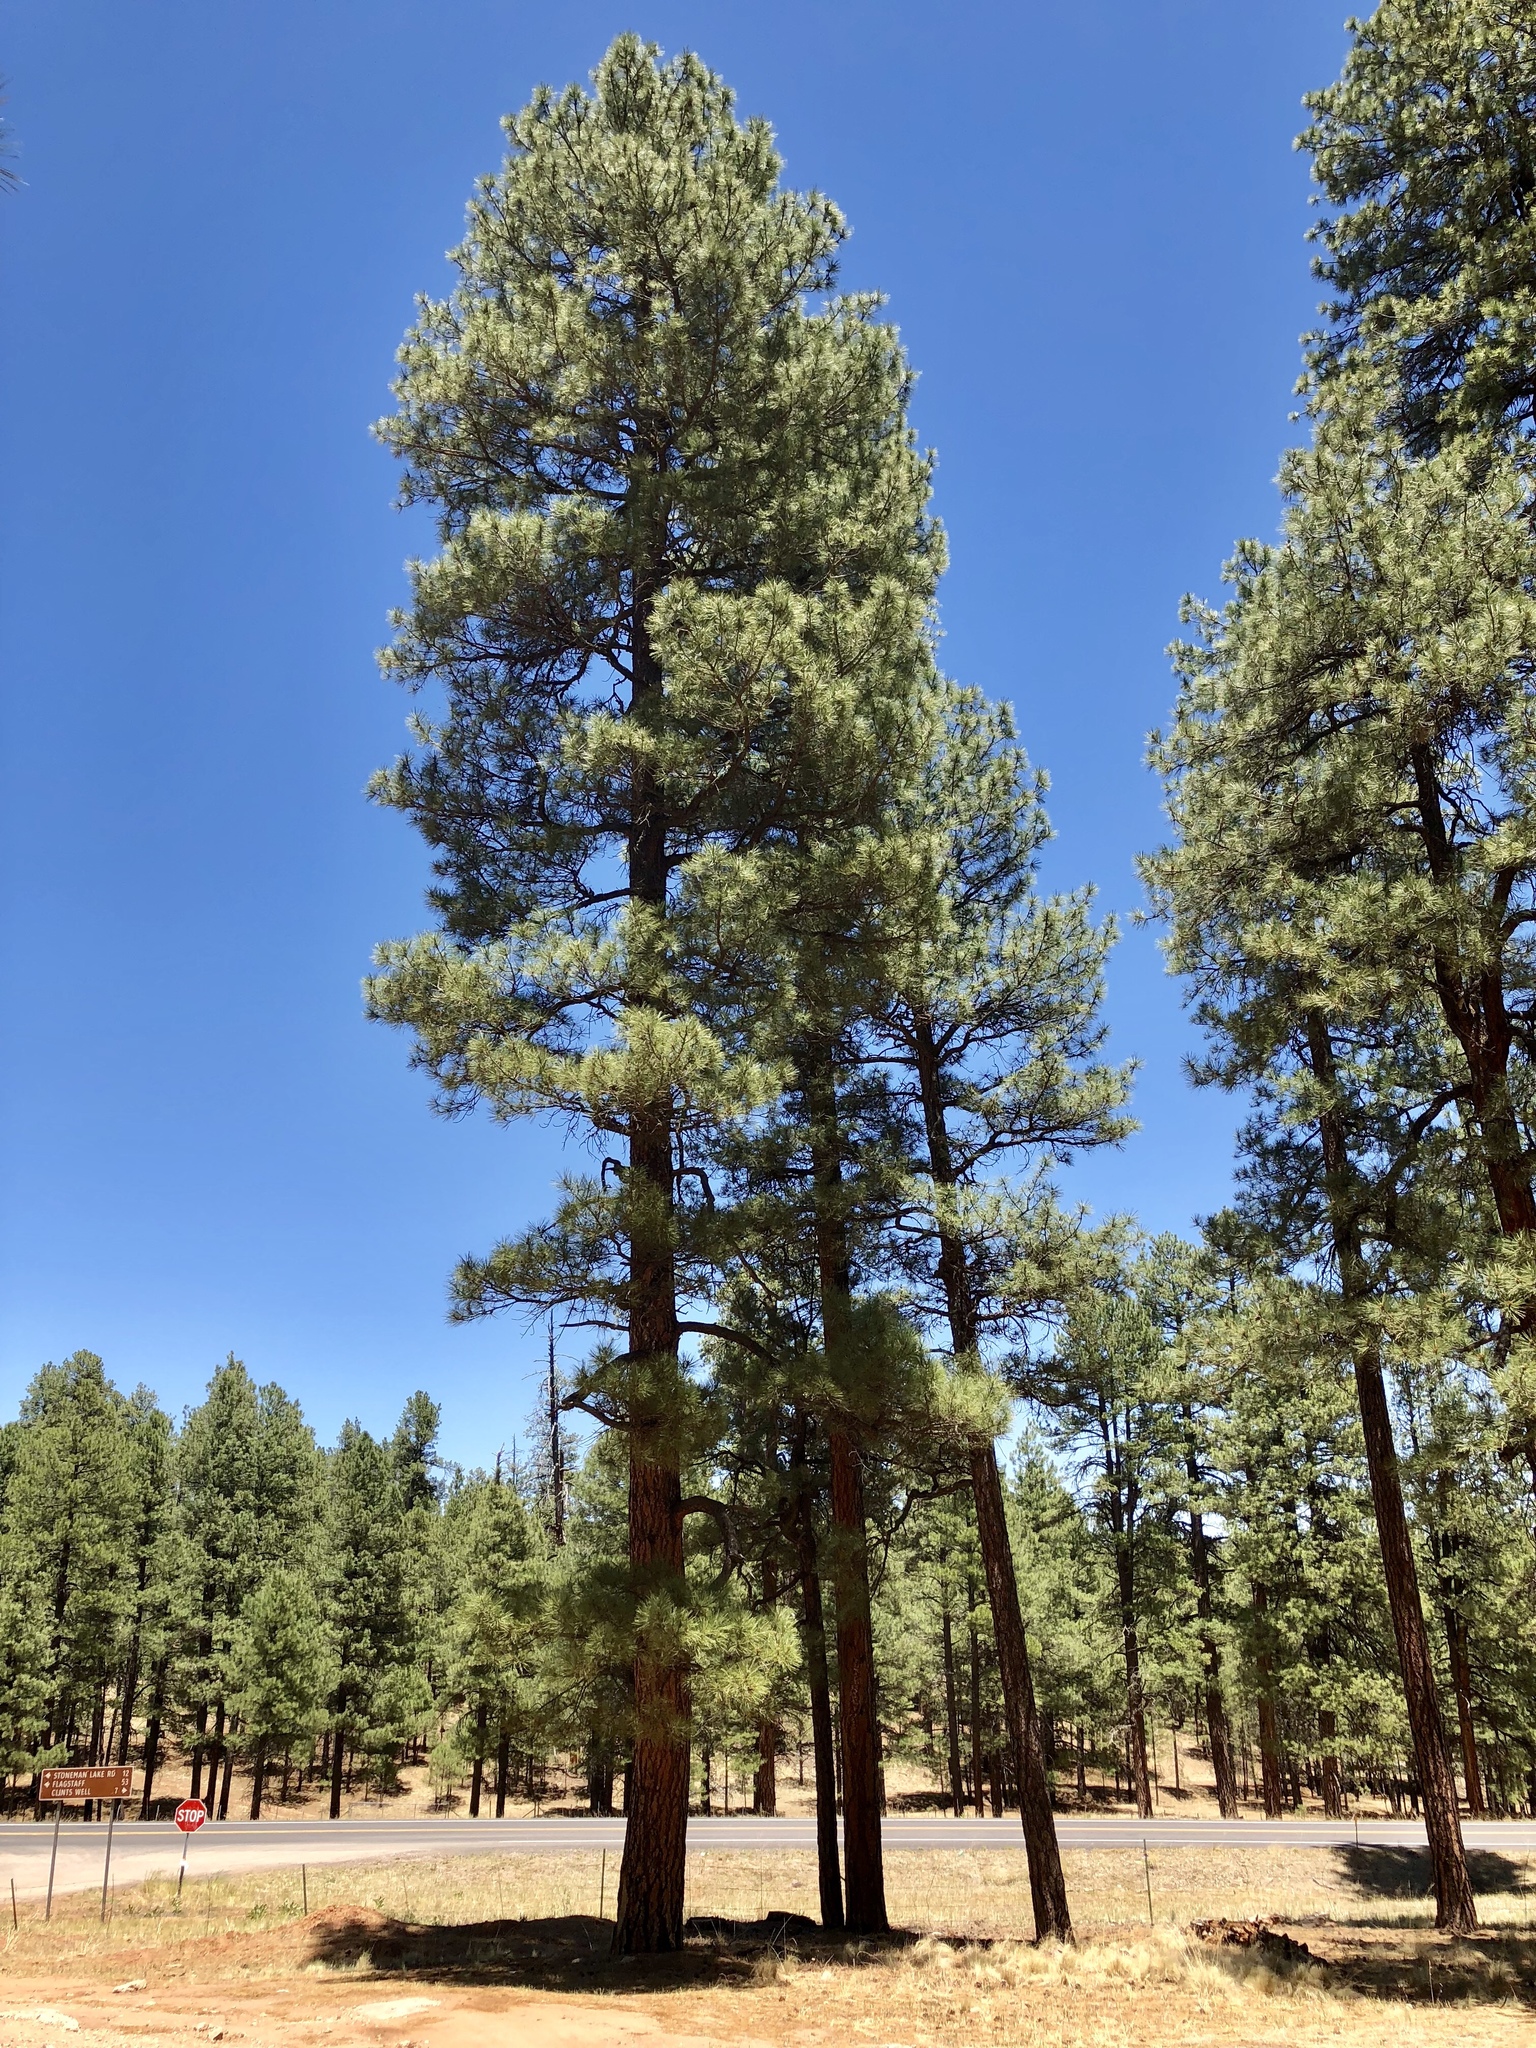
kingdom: Plantae
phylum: Tracheophyta
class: Pinopsida
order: Pinales
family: Pinaceae
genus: Pinus
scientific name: Pinus ponderosa
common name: Western yellow-pine
